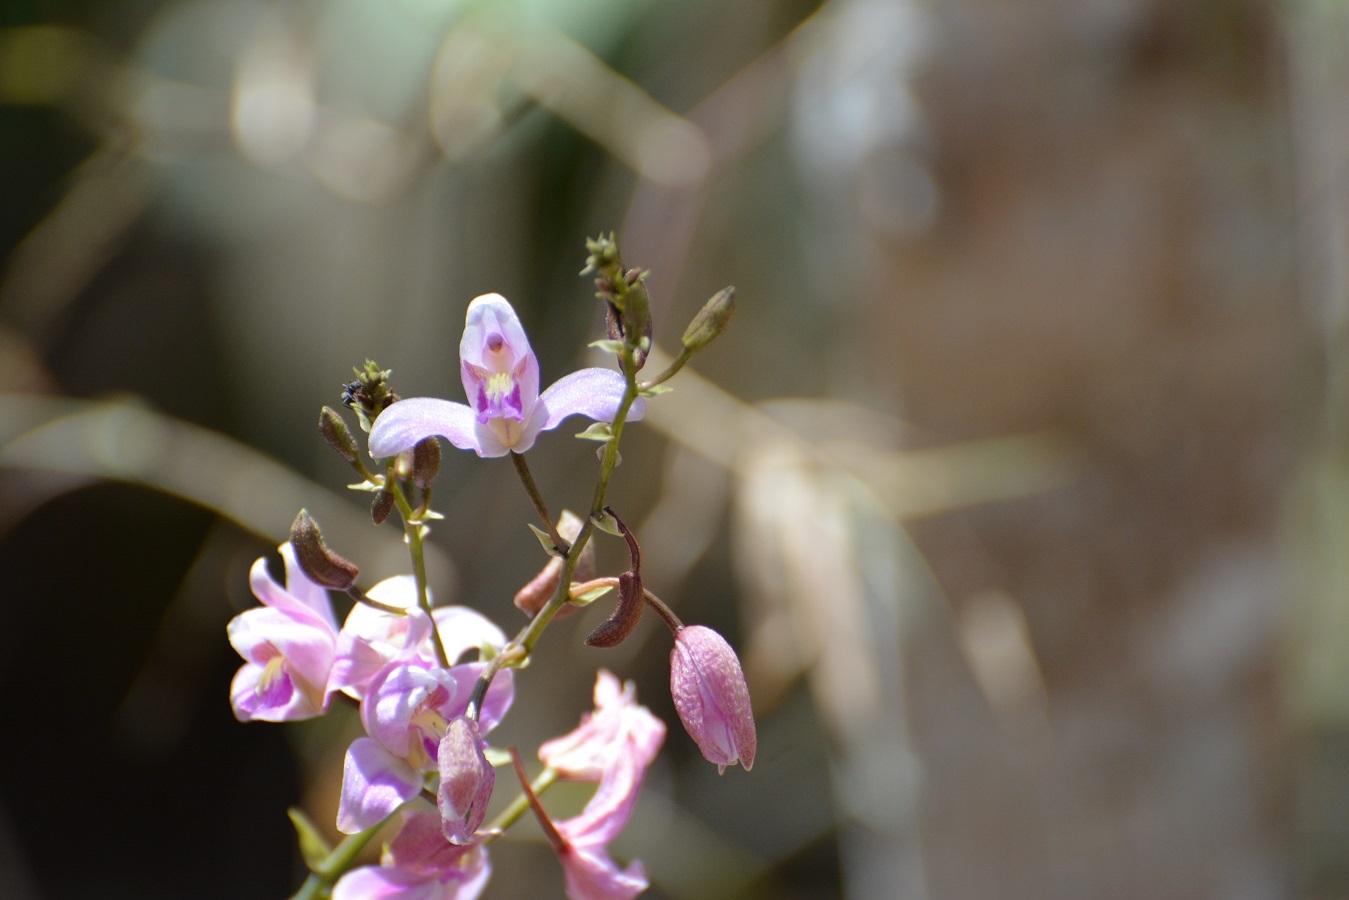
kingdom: Plantae
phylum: Tracheophyta
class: Liliopsida
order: Asparagales
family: Orchidaceae
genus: Bletia
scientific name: Bletia purpurea
